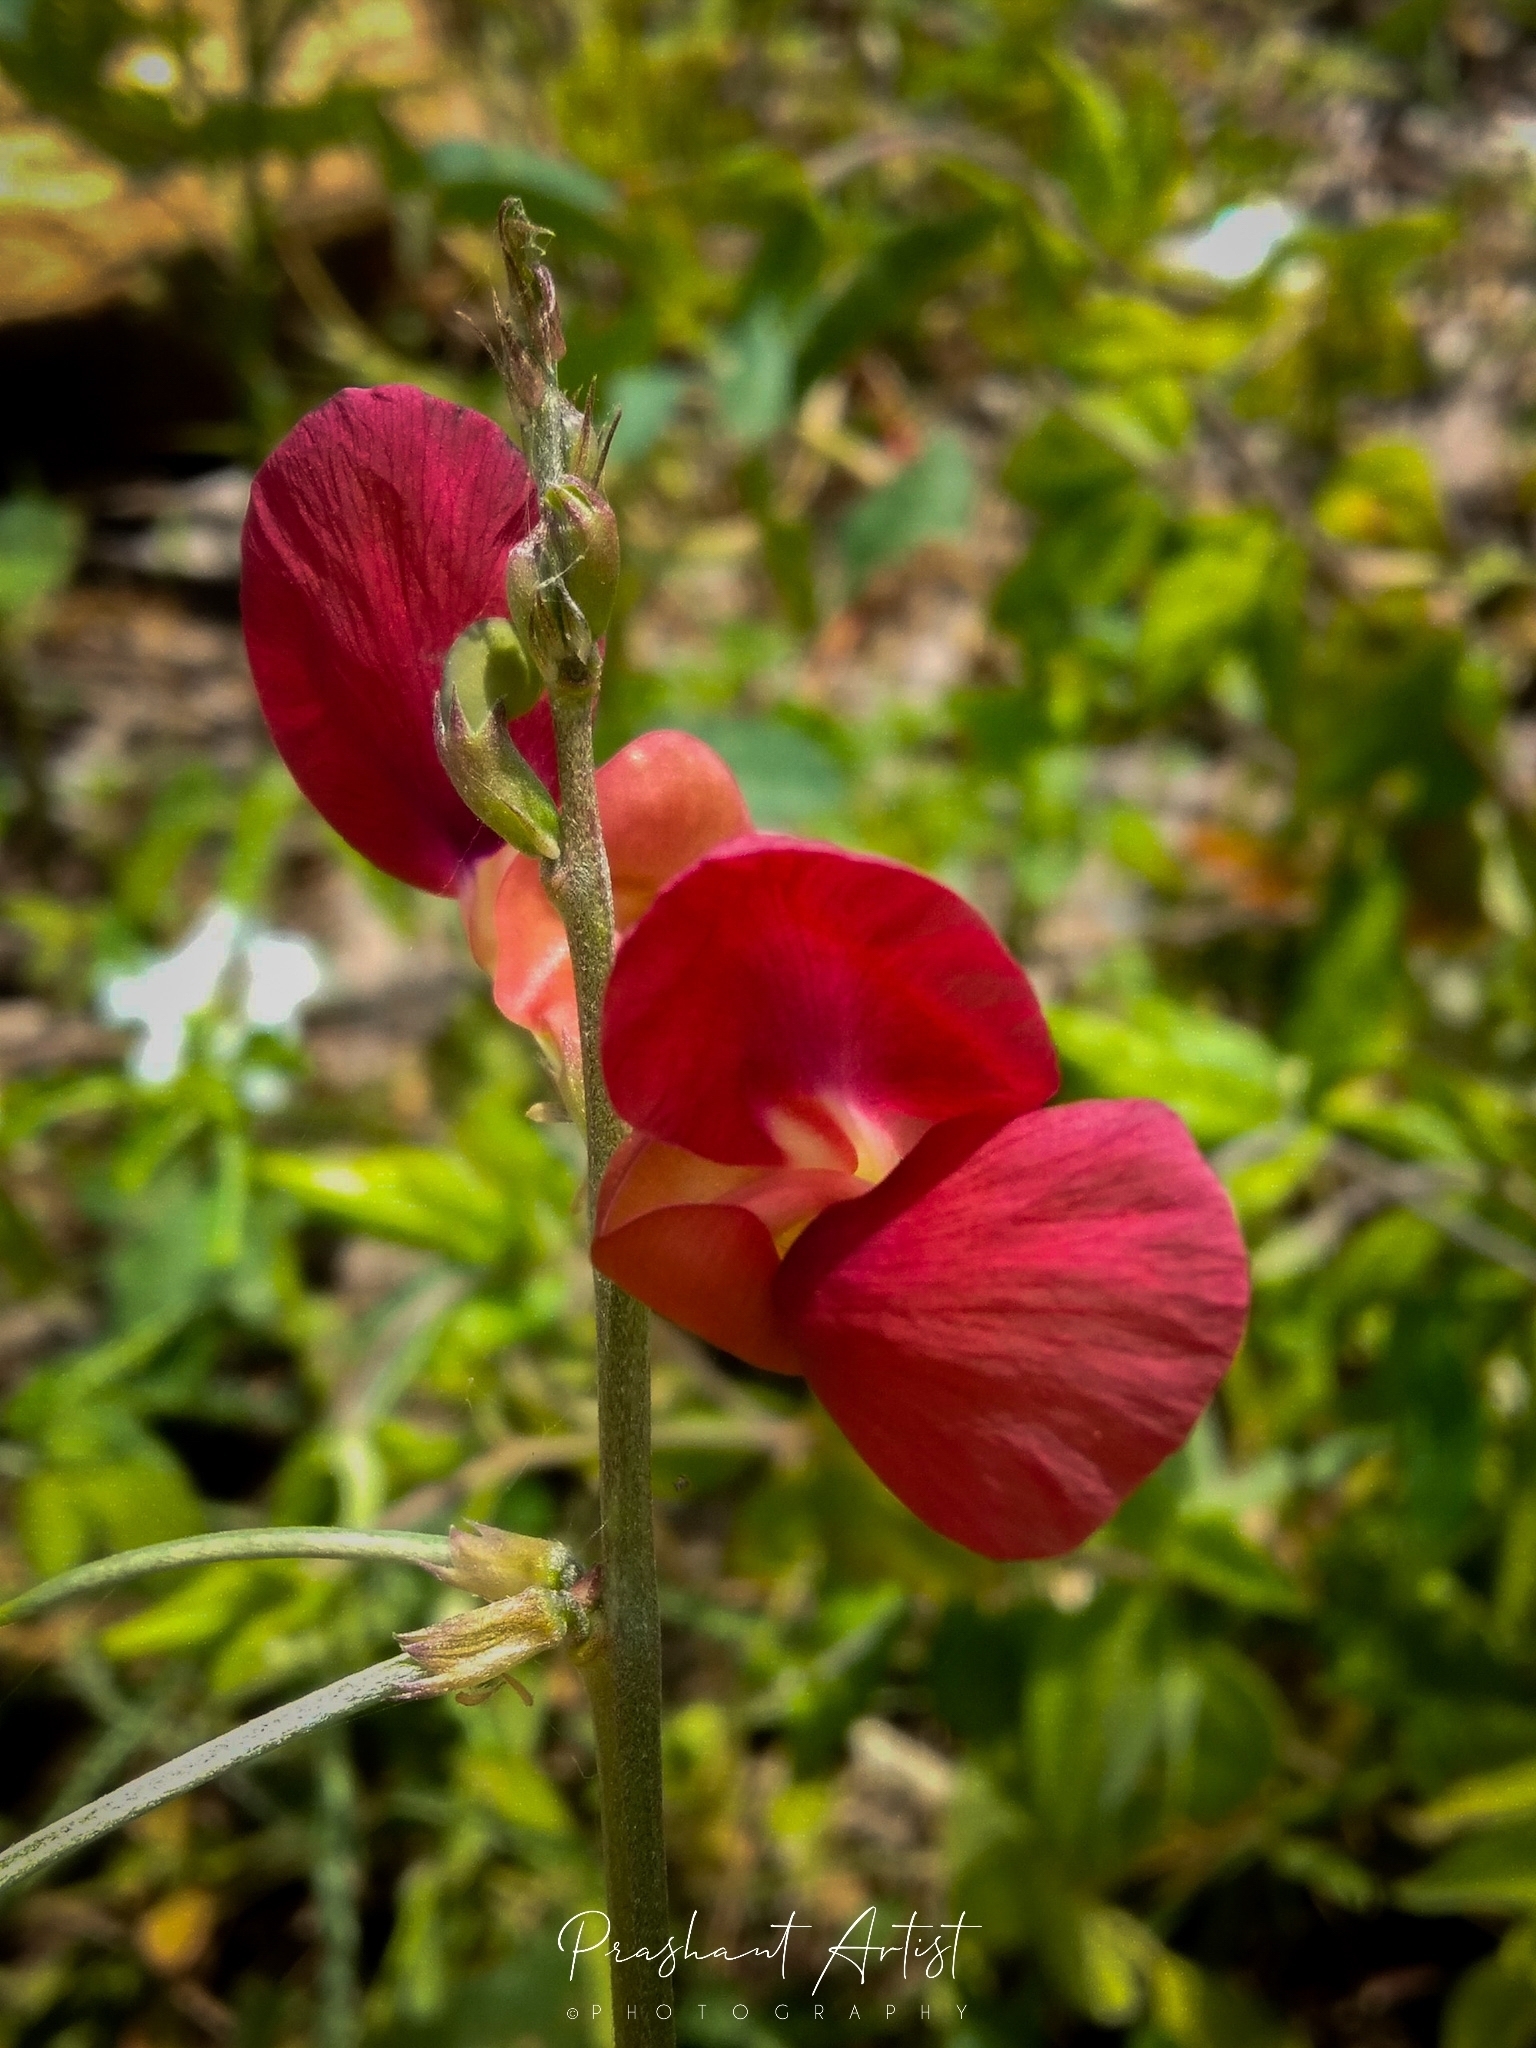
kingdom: Plantae
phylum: Tracheophyta
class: Magnoliopsida
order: Fabales
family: Fabaceae
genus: Macroptilium
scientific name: Macroptilium lathyroides
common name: Wild bushbean
